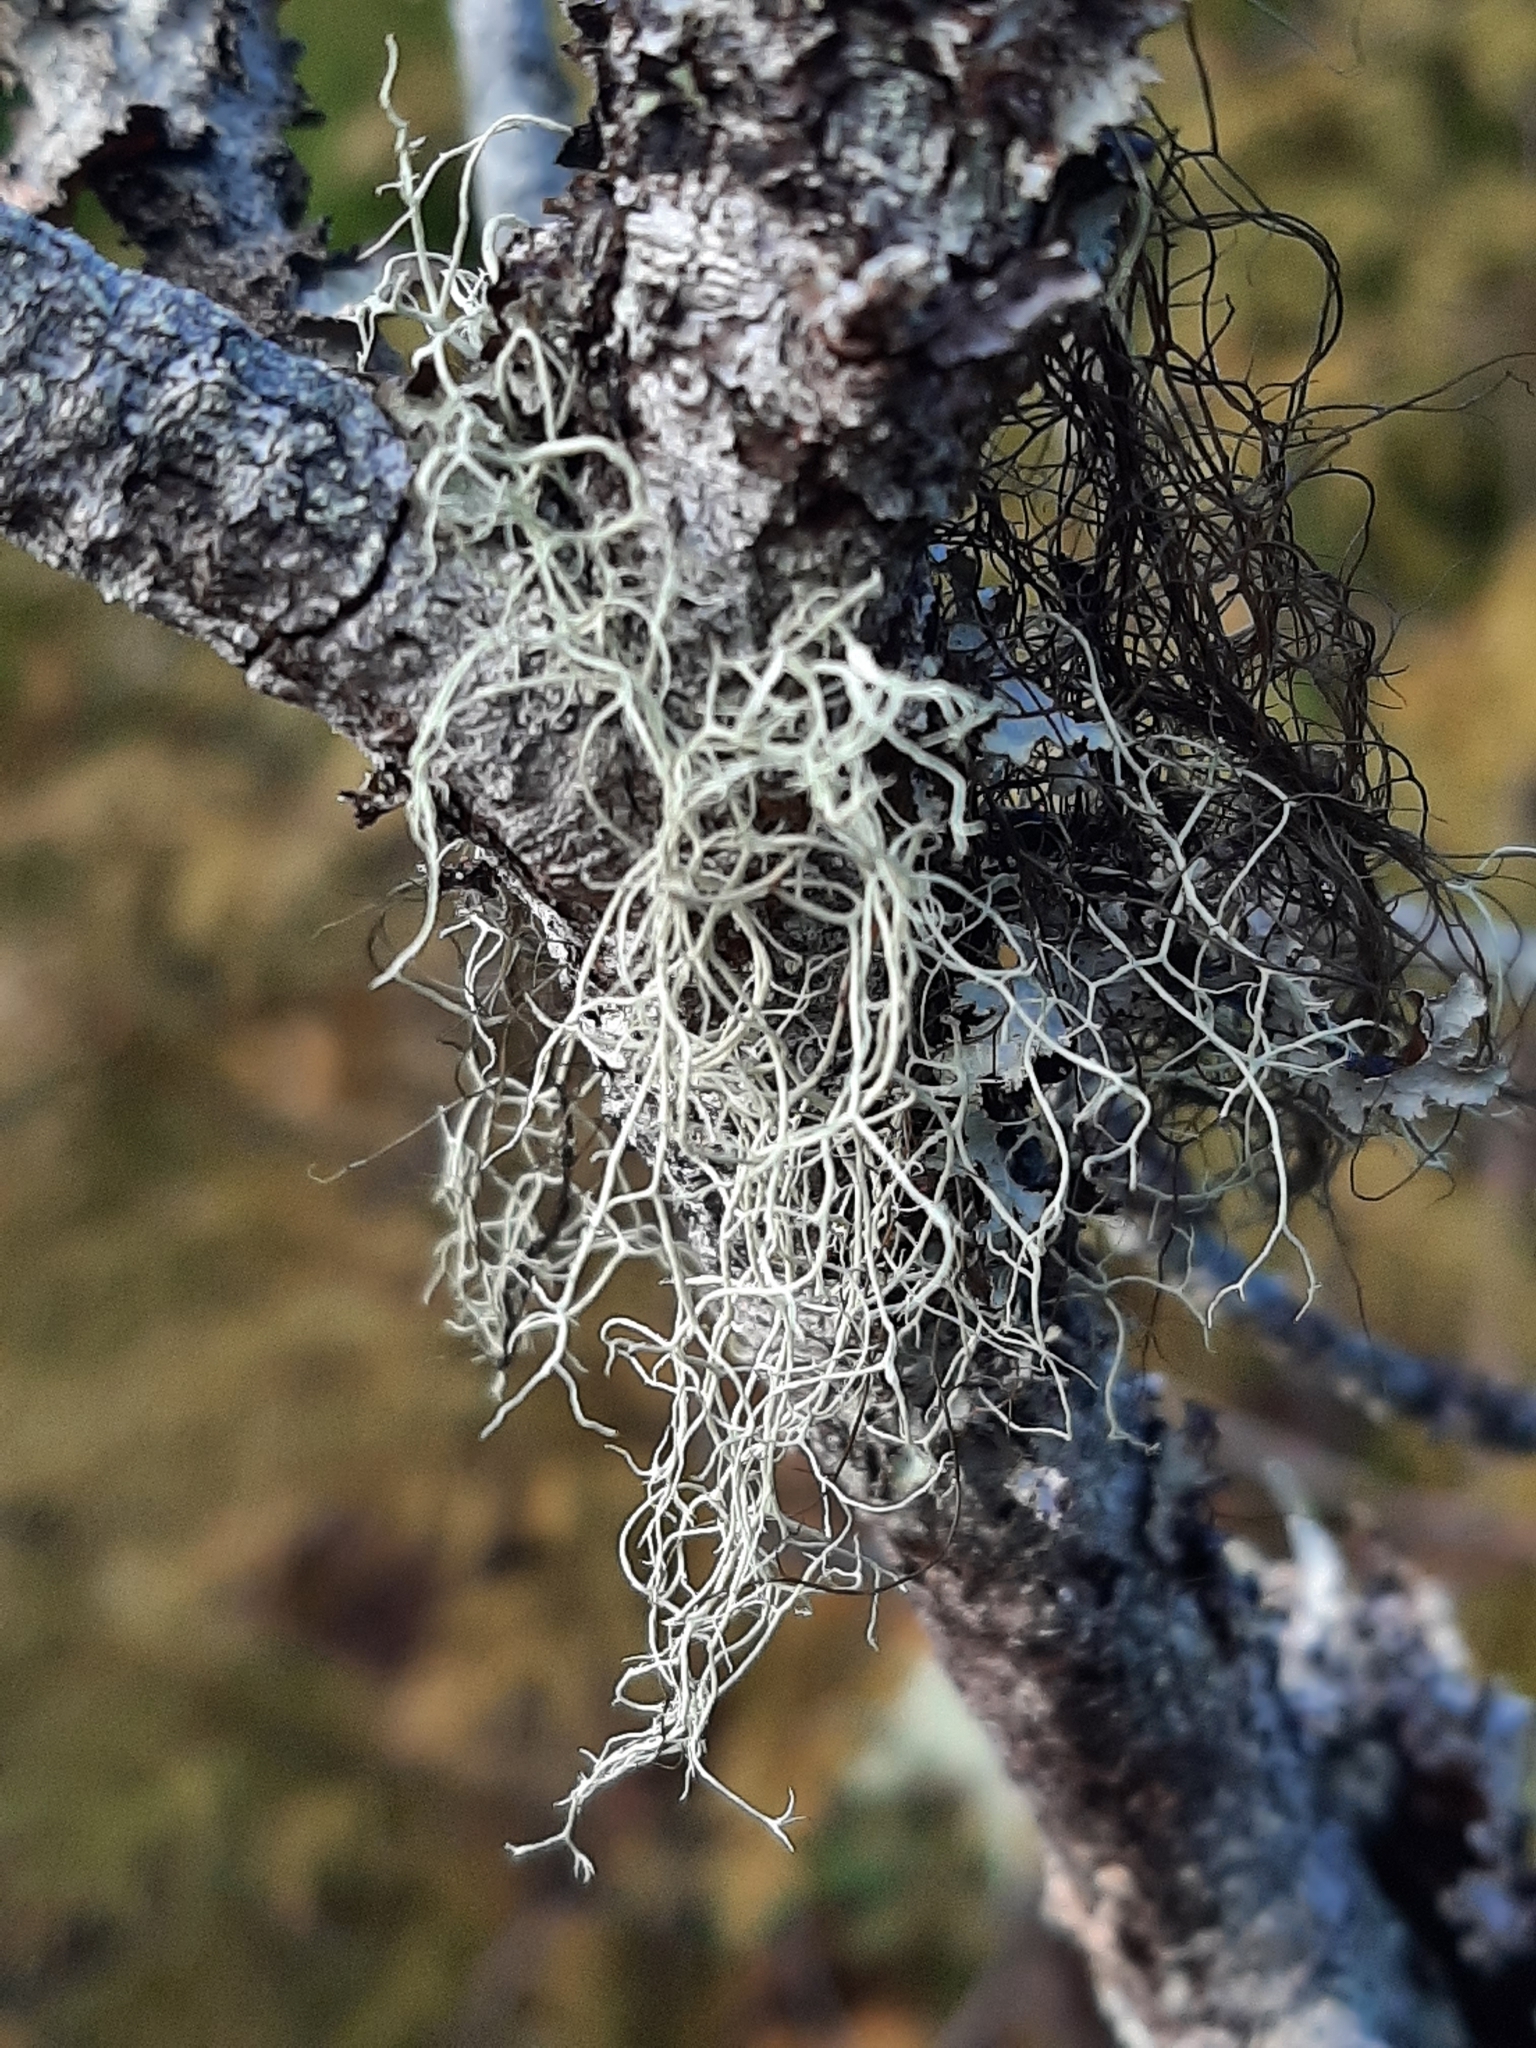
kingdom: Fungi
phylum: Ascomycota
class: Lecanoromycetes
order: Lecanorales
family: Parmeliaceae
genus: Alectoria
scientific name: Alectoria sarmentosa
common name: Witch's hair
